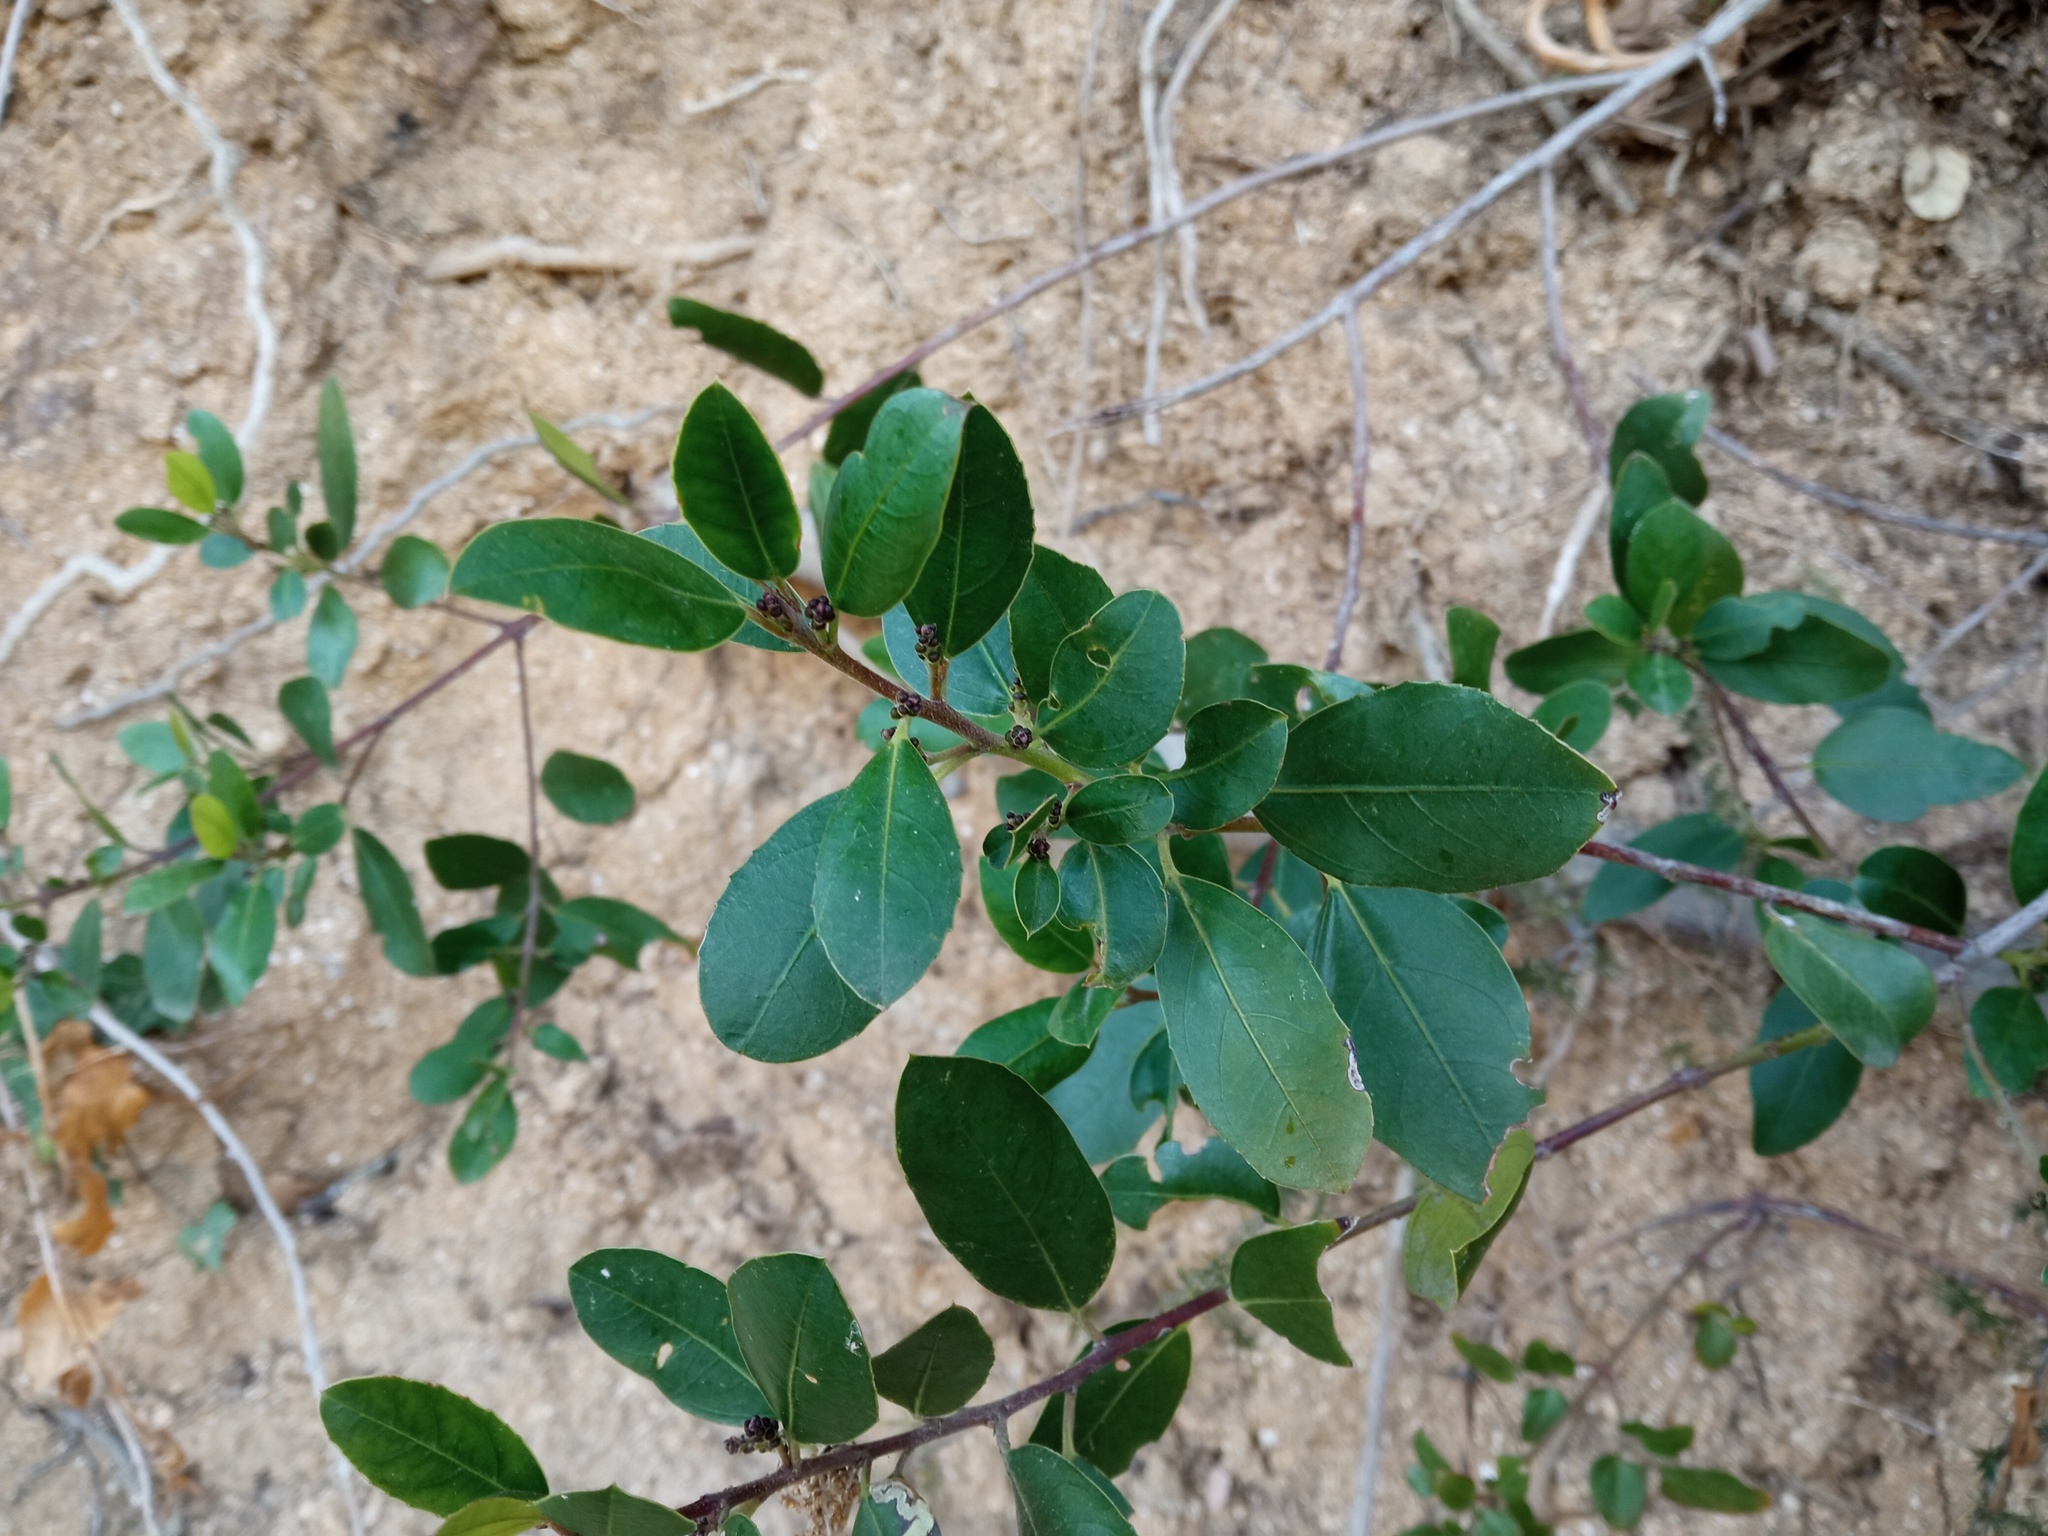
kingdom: Plantae
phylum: Tracheophyta
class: Magnoliopsida
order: Rosales
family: Rhamnaceae
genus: Rhamnus
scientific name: Rhamnus alaternus
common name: Mediterranean buckthorn
